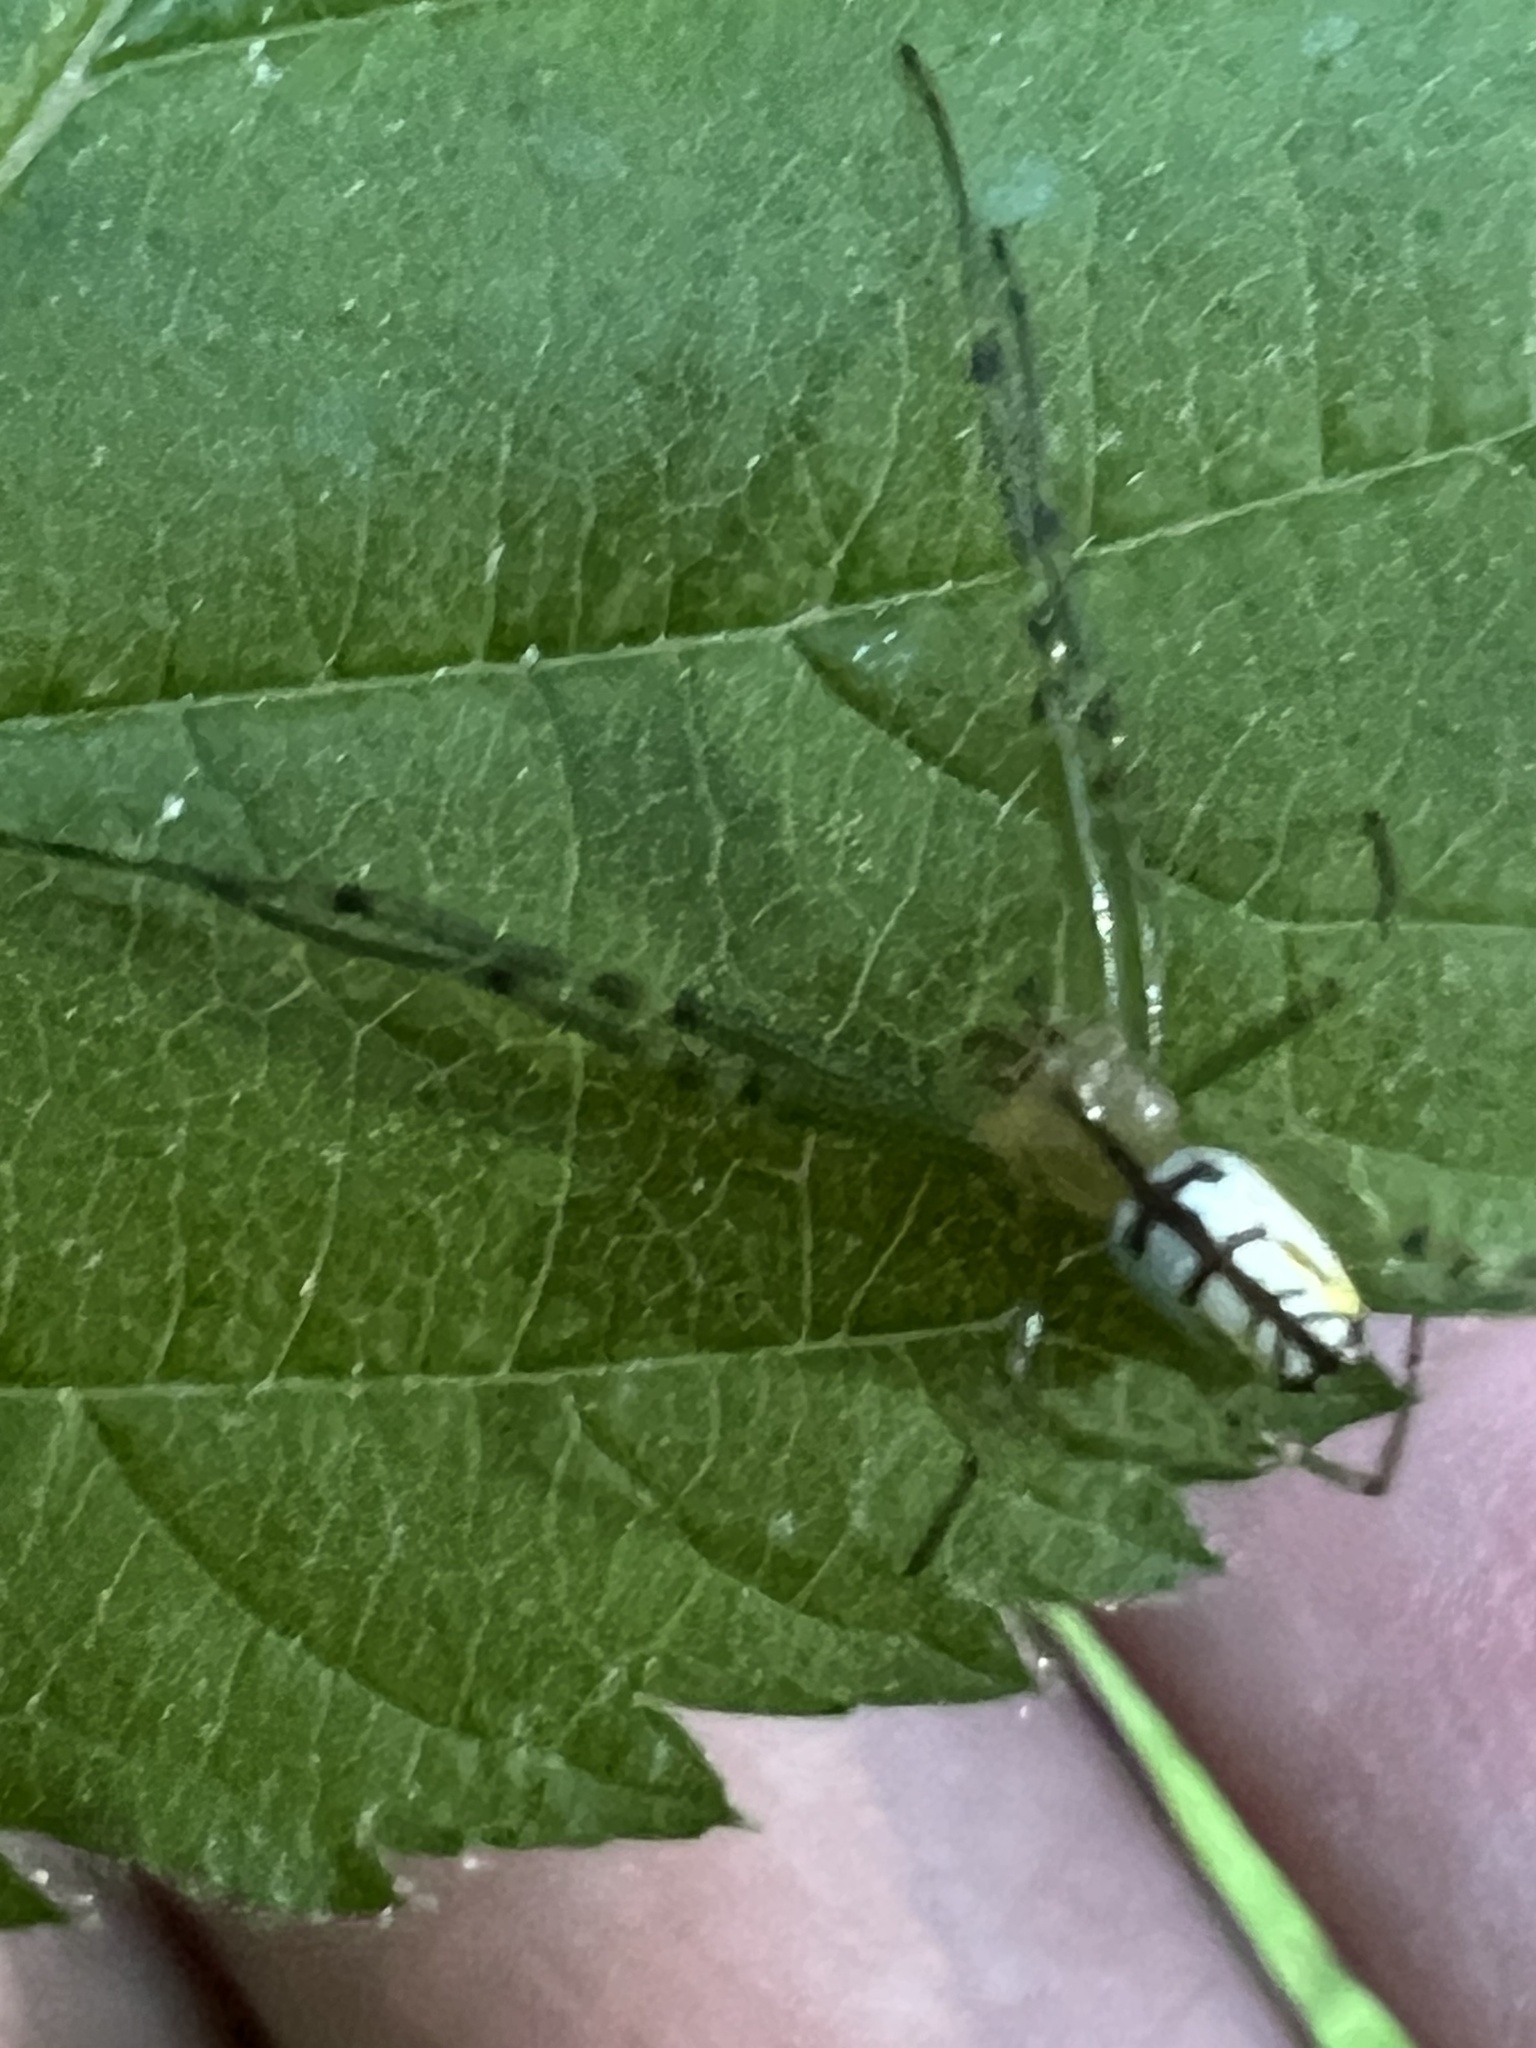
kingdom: Animalia
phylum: Arthropoda
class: Arachnida
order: Araneae
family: Tetragnathidae
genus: Leucauge
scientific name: Leucauge venusta
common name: Longjawed orb weavers
